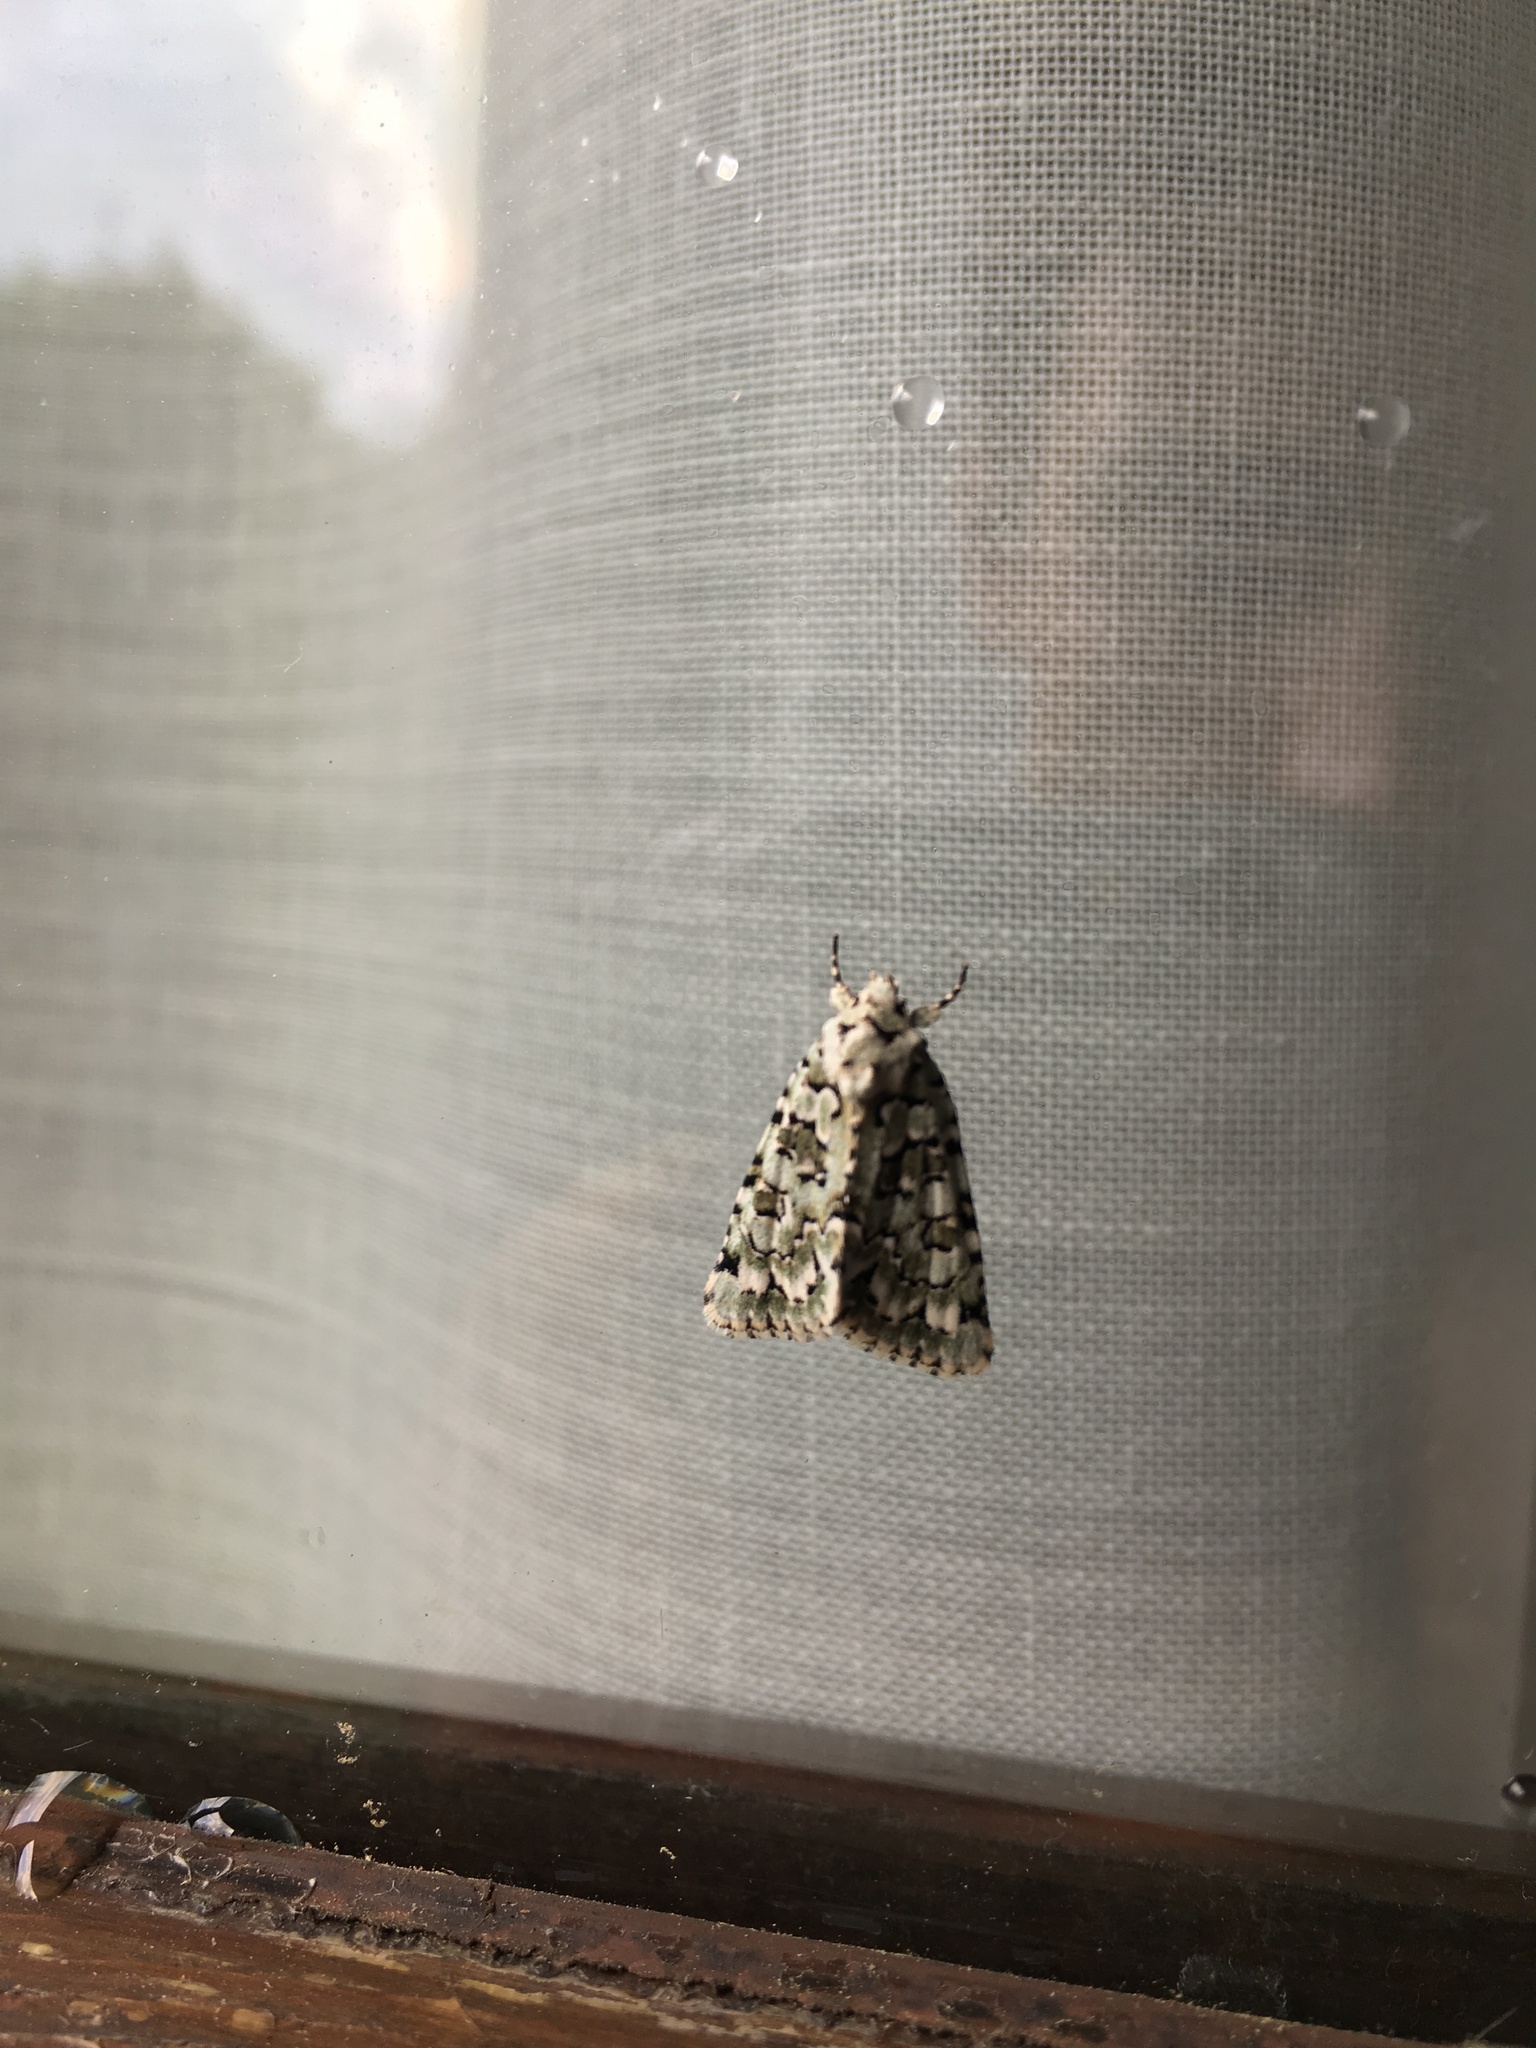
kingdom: Animalia
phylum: Arthropoda
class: Insecta
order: Lepidoptera
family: Noctuidae
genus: Nyctobrya
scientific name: Nyctobrya muralis
